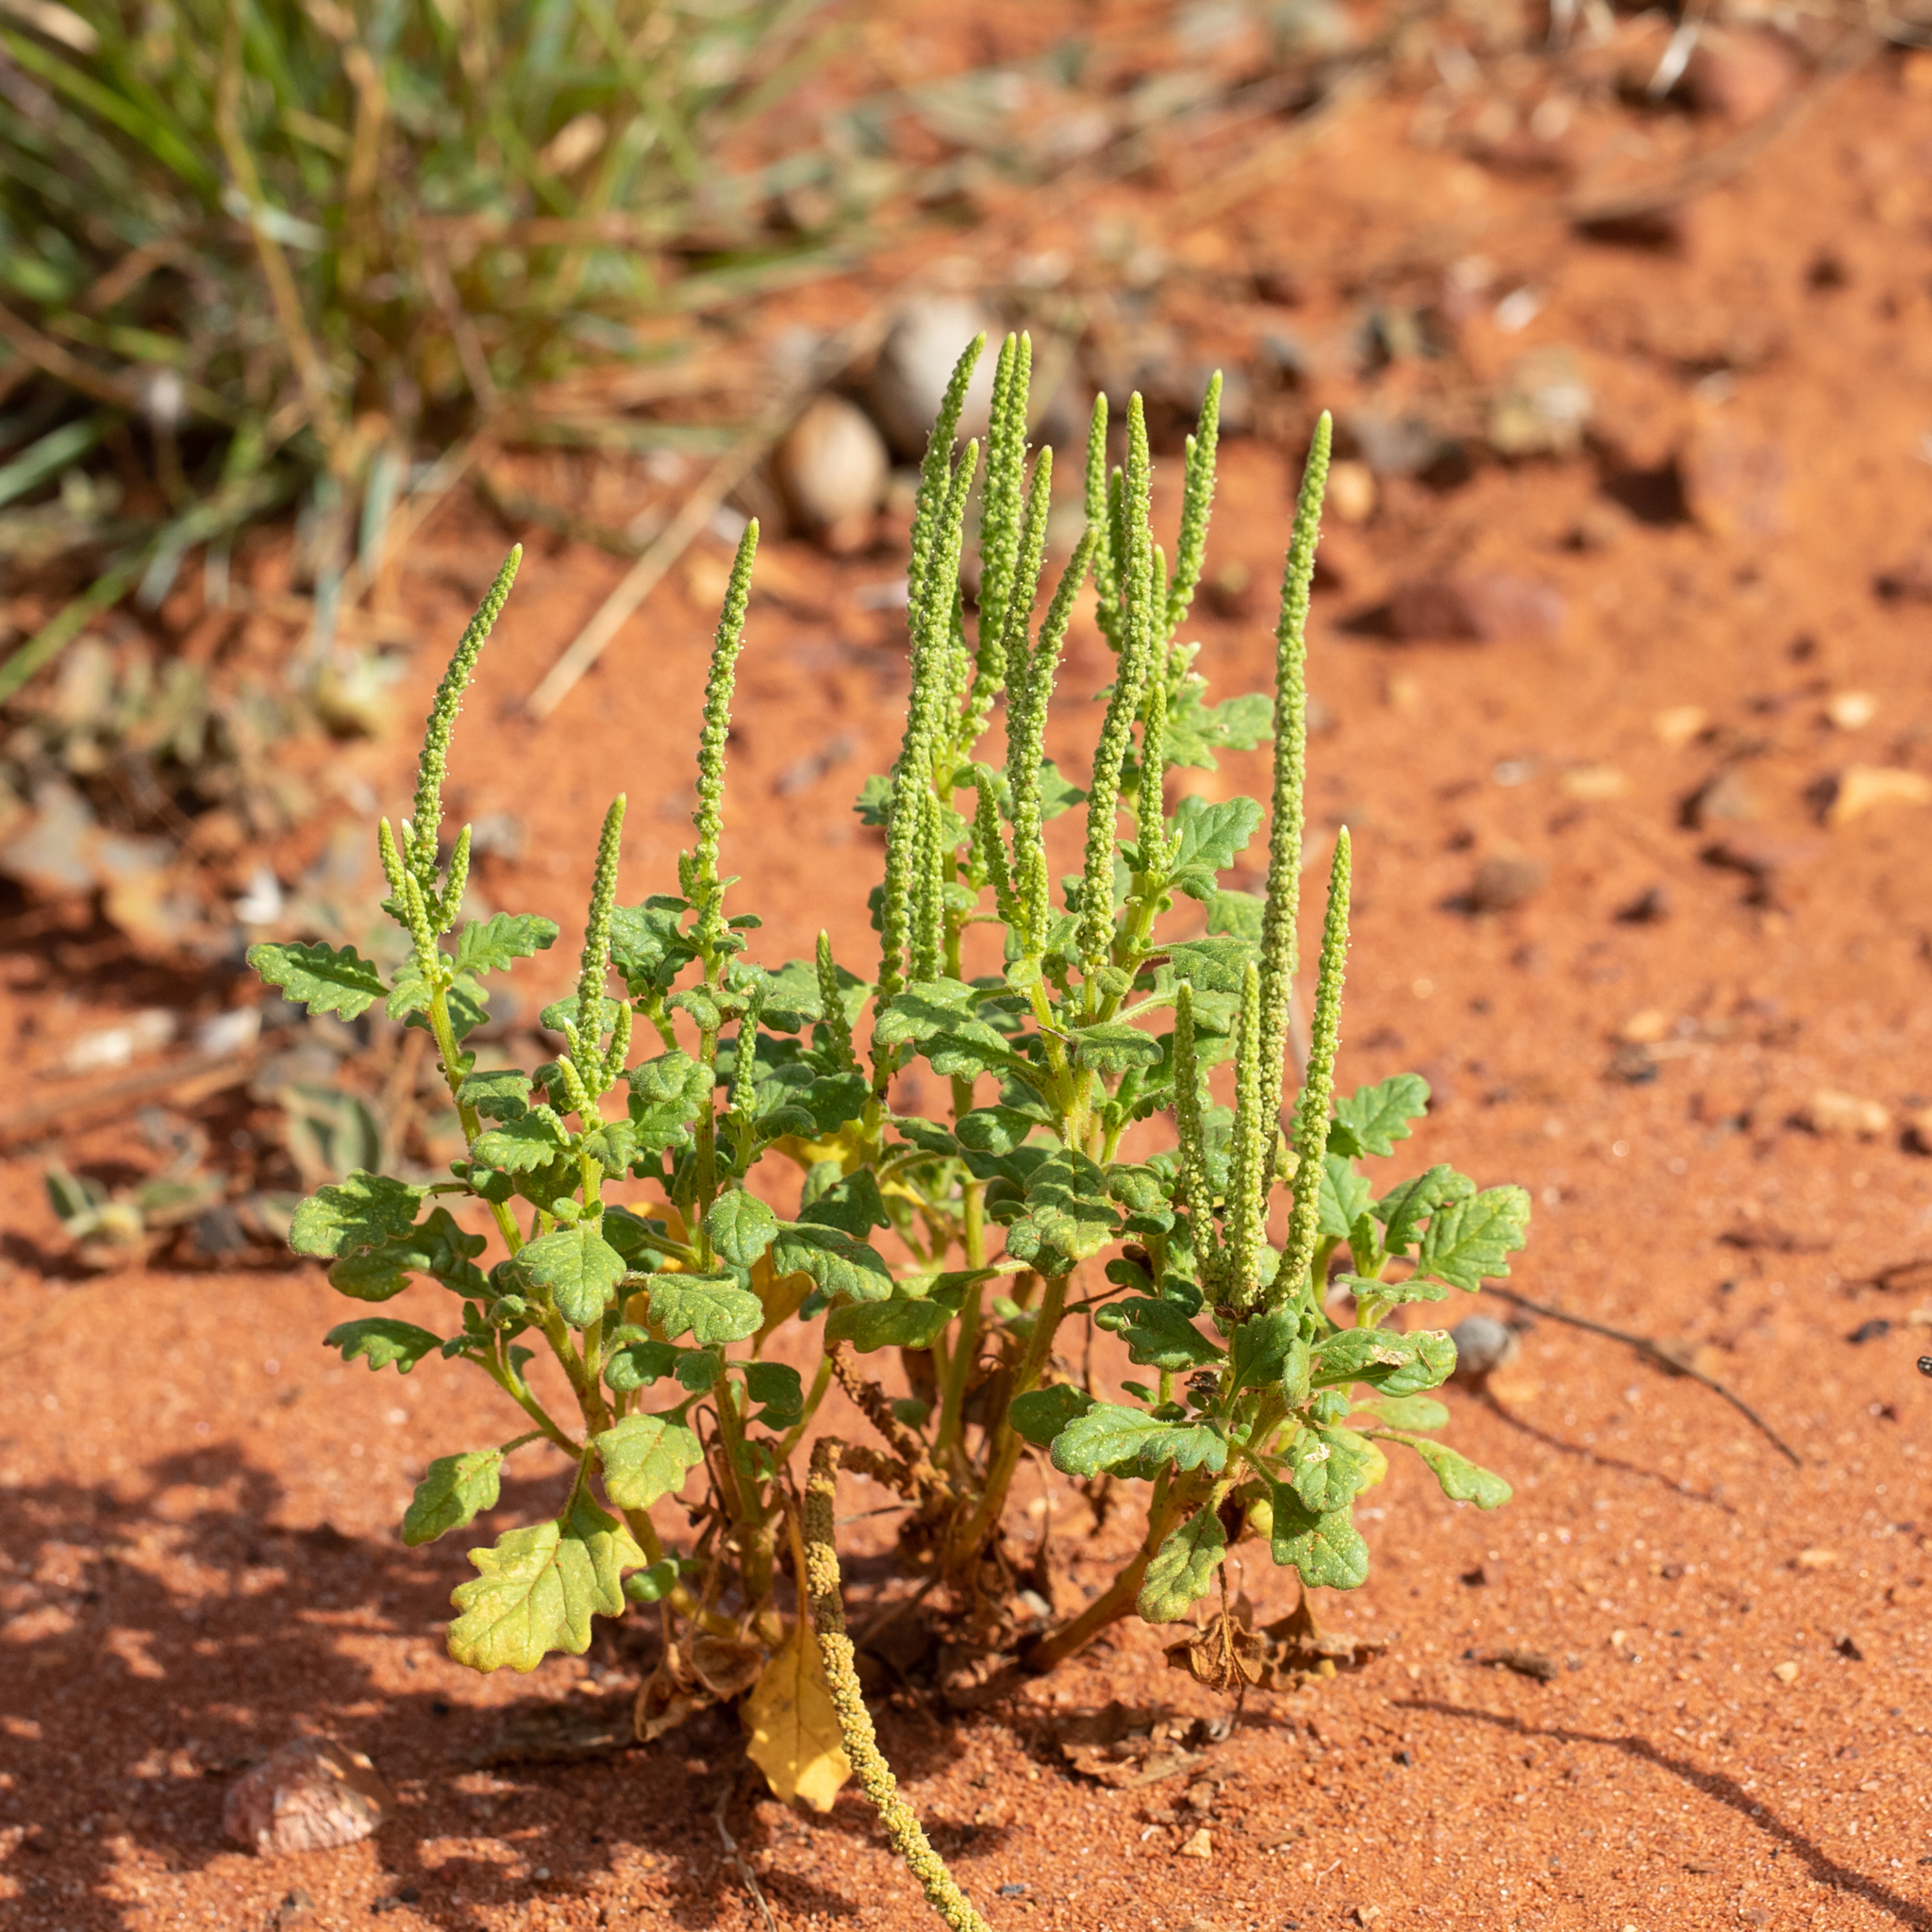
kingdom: Plantae
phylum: Tracheophyta
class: Magnoliopsida
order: Caryophyllales
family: Amaranthaceae
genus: Dysphania
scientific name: Dysphania rhadinostachya
